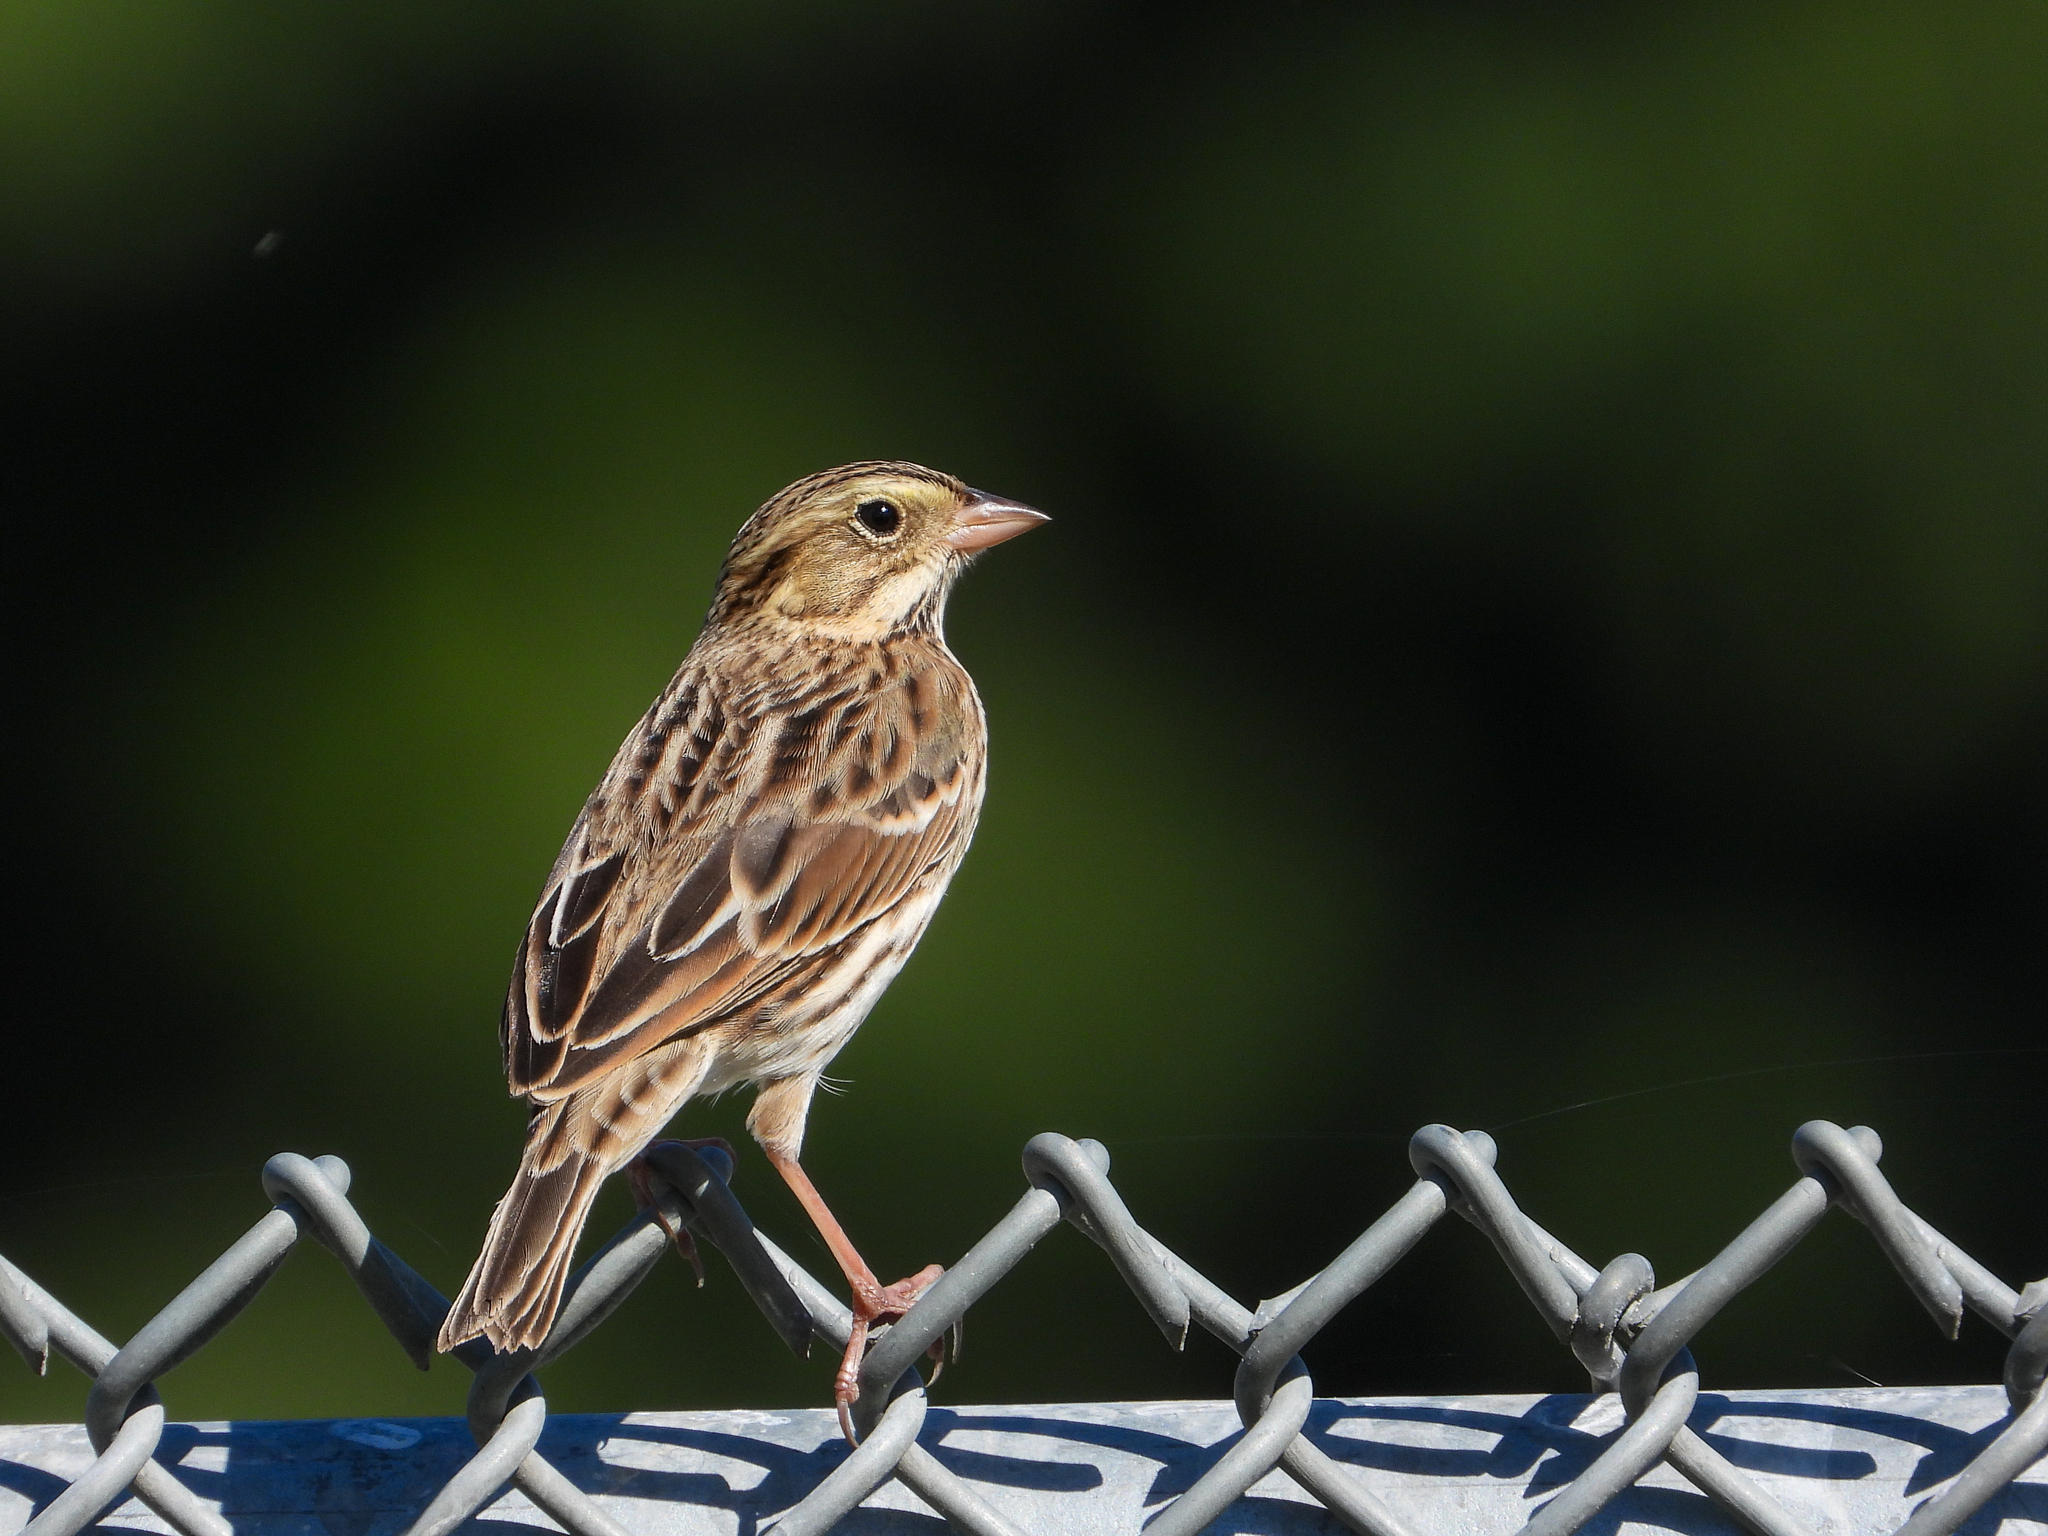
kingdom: Animalia
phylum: Chordata
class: Aves
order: Passeriformes
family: Passerellidae
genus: Passerculus
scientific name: Passerculus sandwichensis
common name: Savannah sparrow
